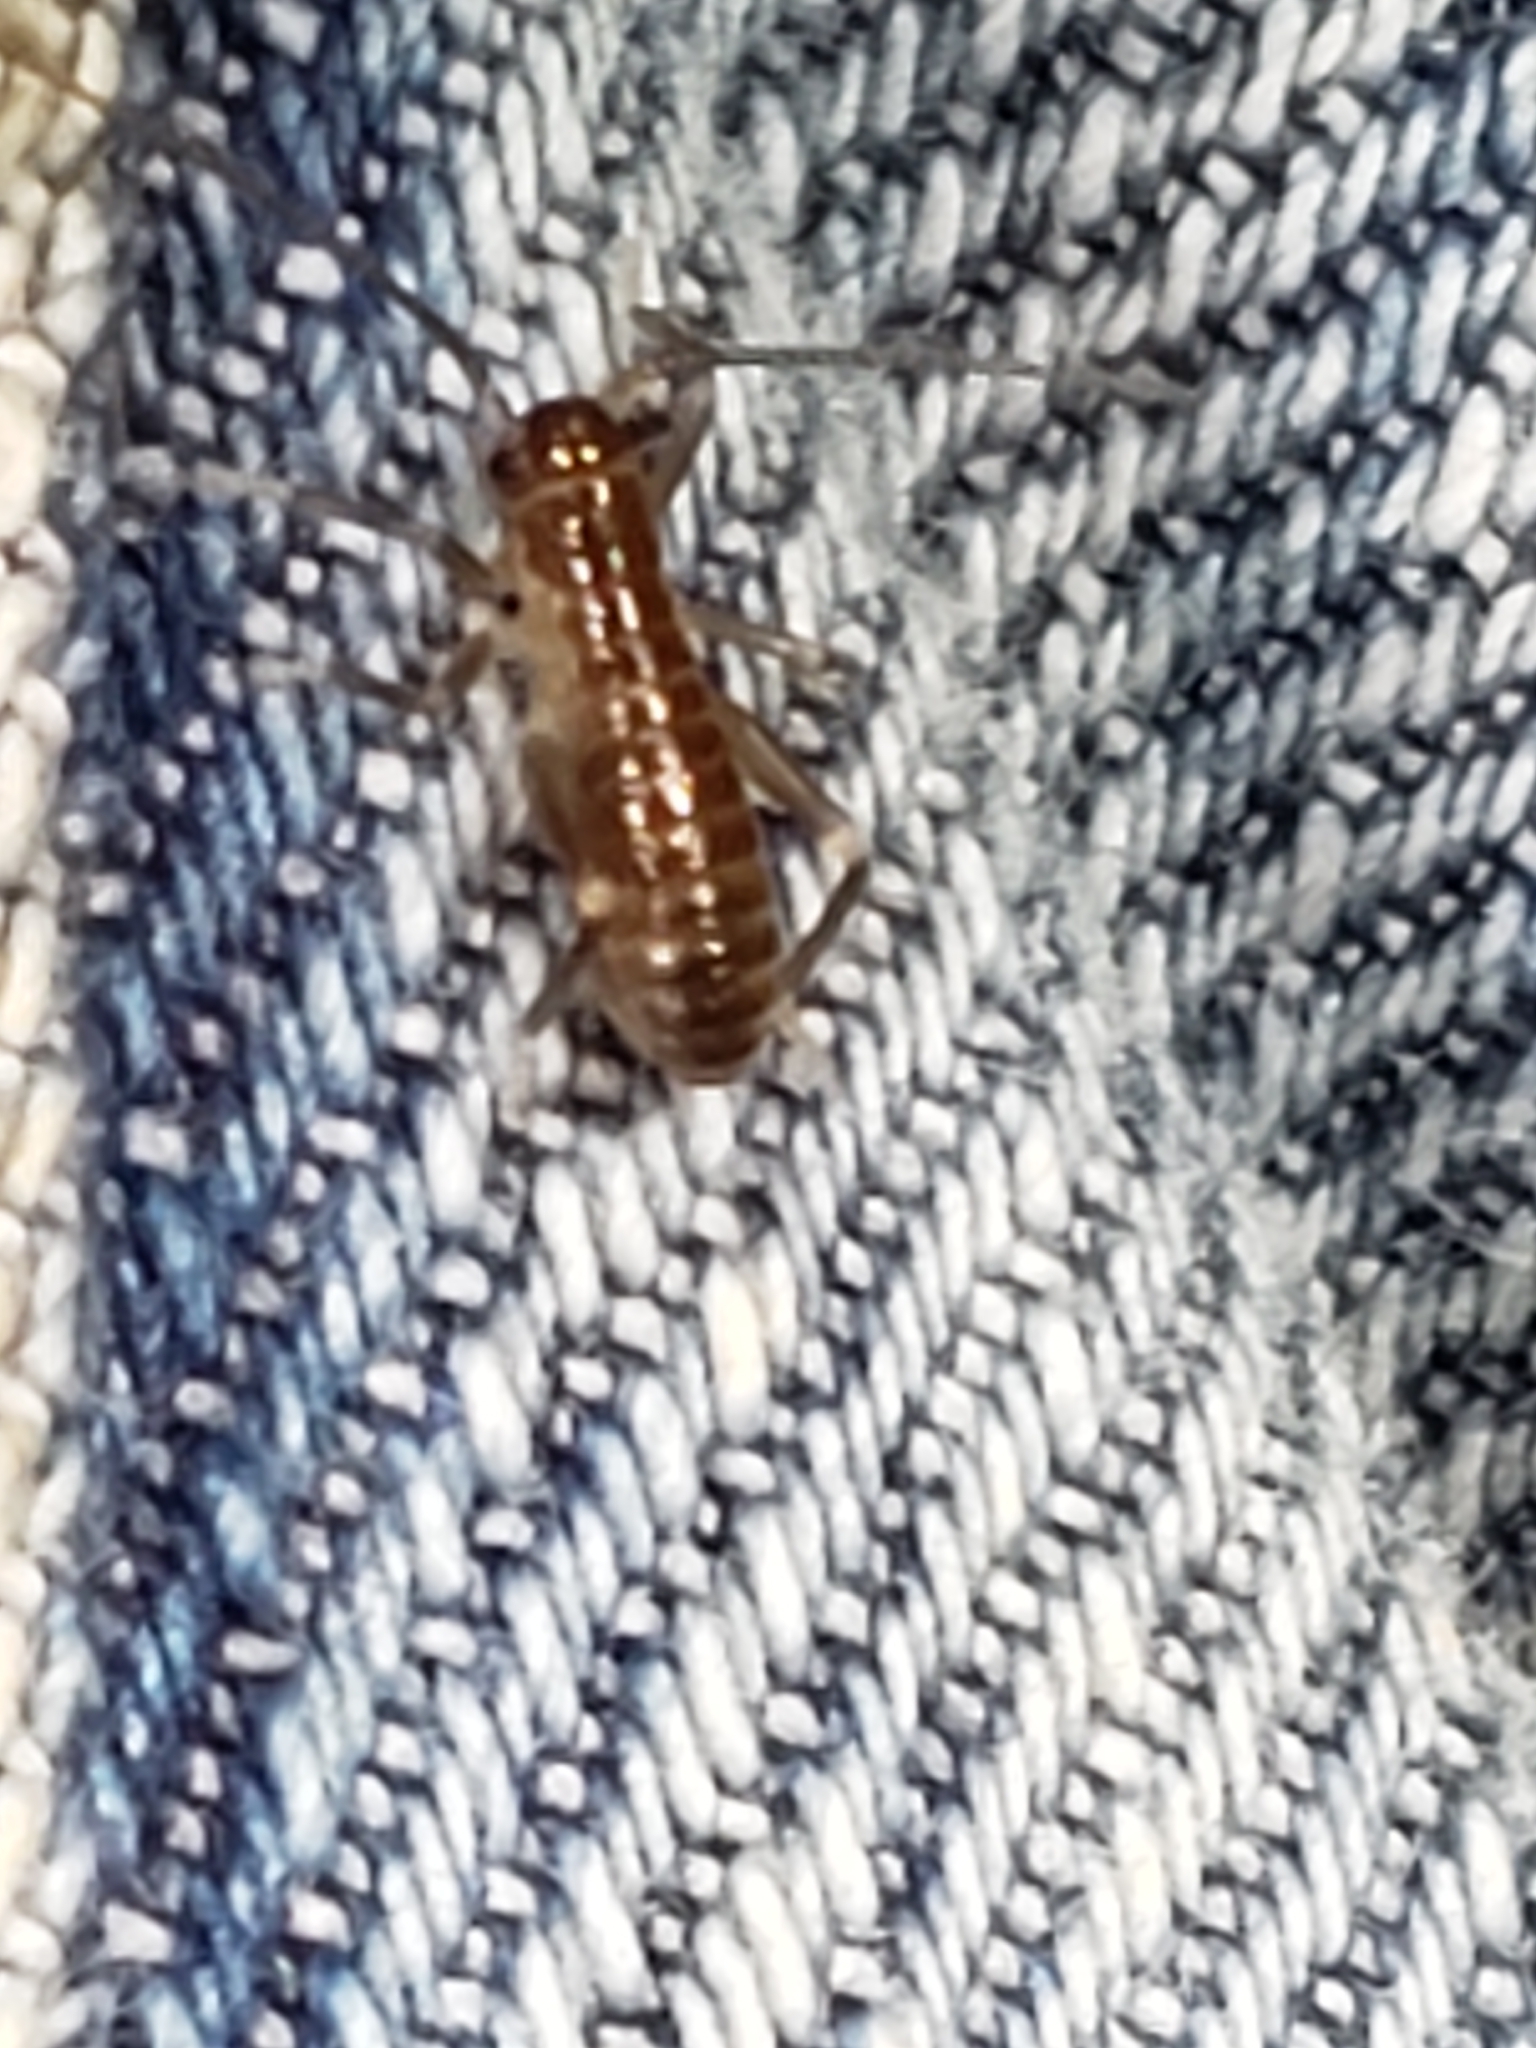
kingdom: Animalia
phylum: Arthropoda
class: Insecta
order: Orthoptera
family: Gryllacrididae
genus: Camptonotus
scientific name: Camptonotus carolinensis
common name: Carolina leaf-roller
